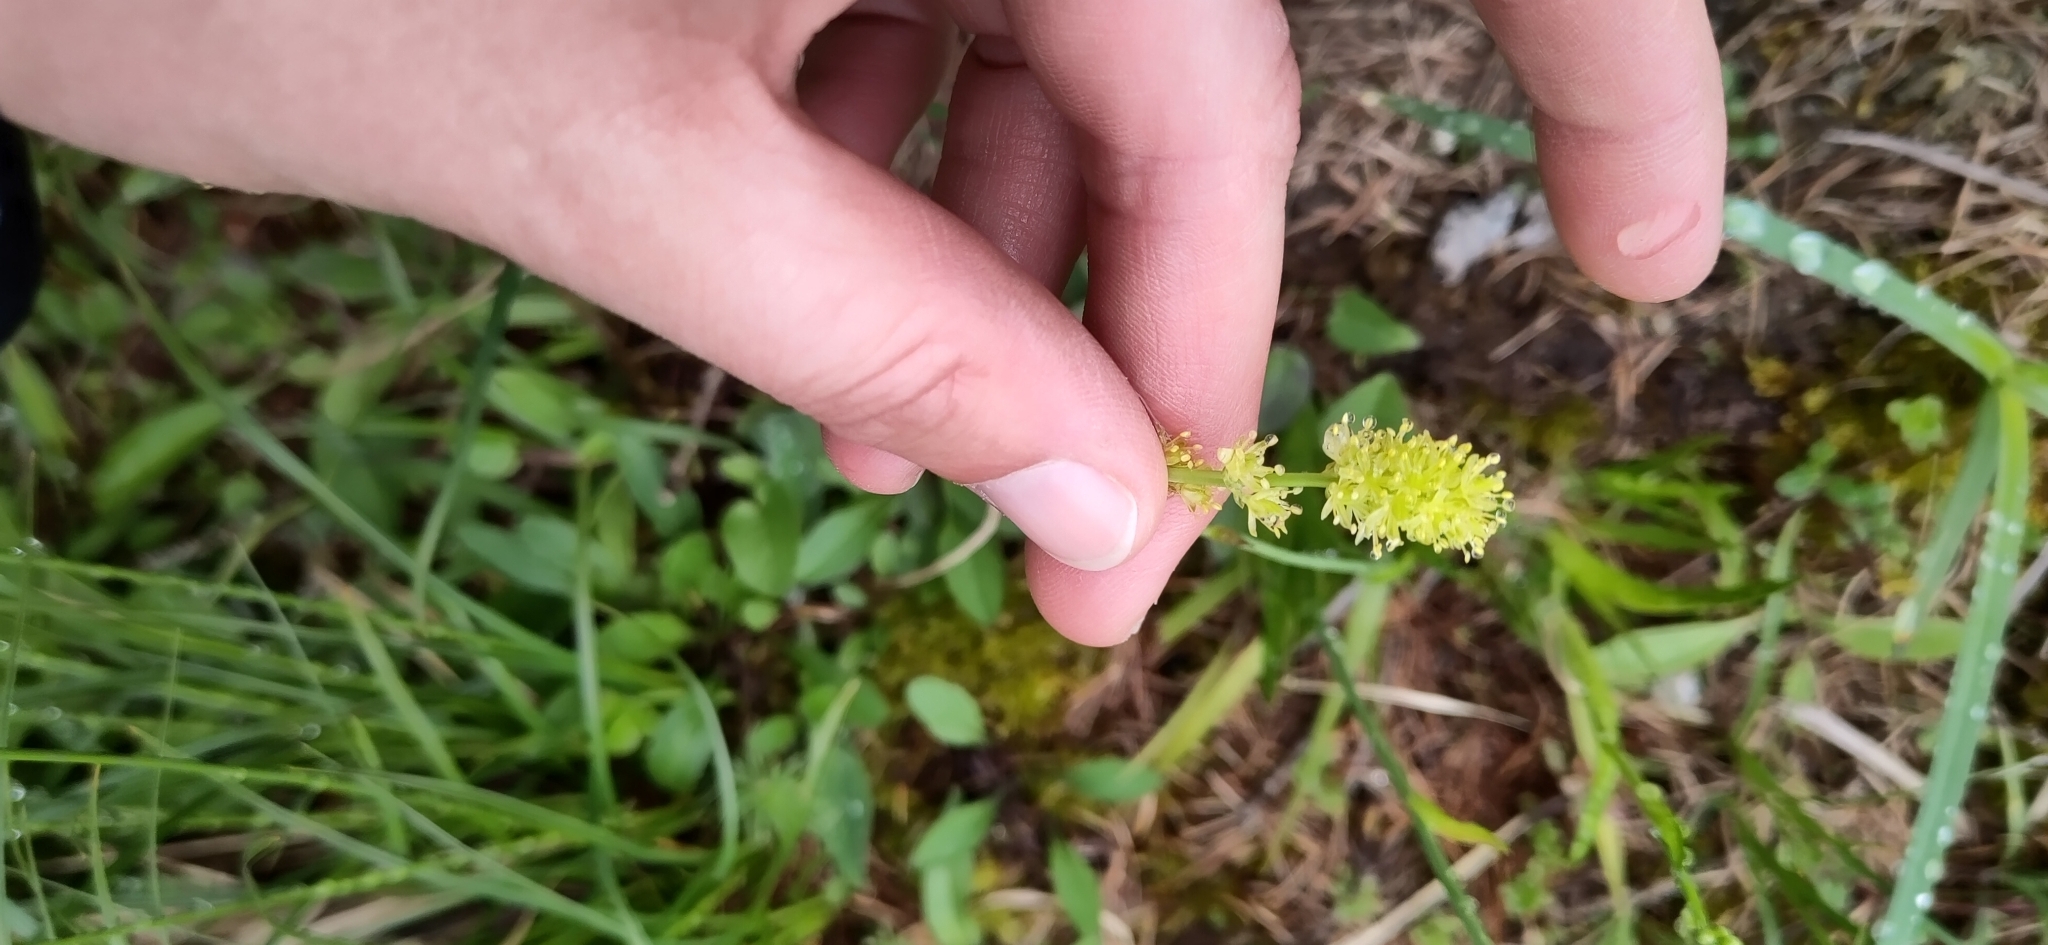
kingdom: Plantae
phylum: Tracheophyta
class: Liliopsida
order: Alismatales
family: Tofieldiaceae
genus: Tofieldia
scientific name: Tofieldia calyculata
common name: German-asphodel
